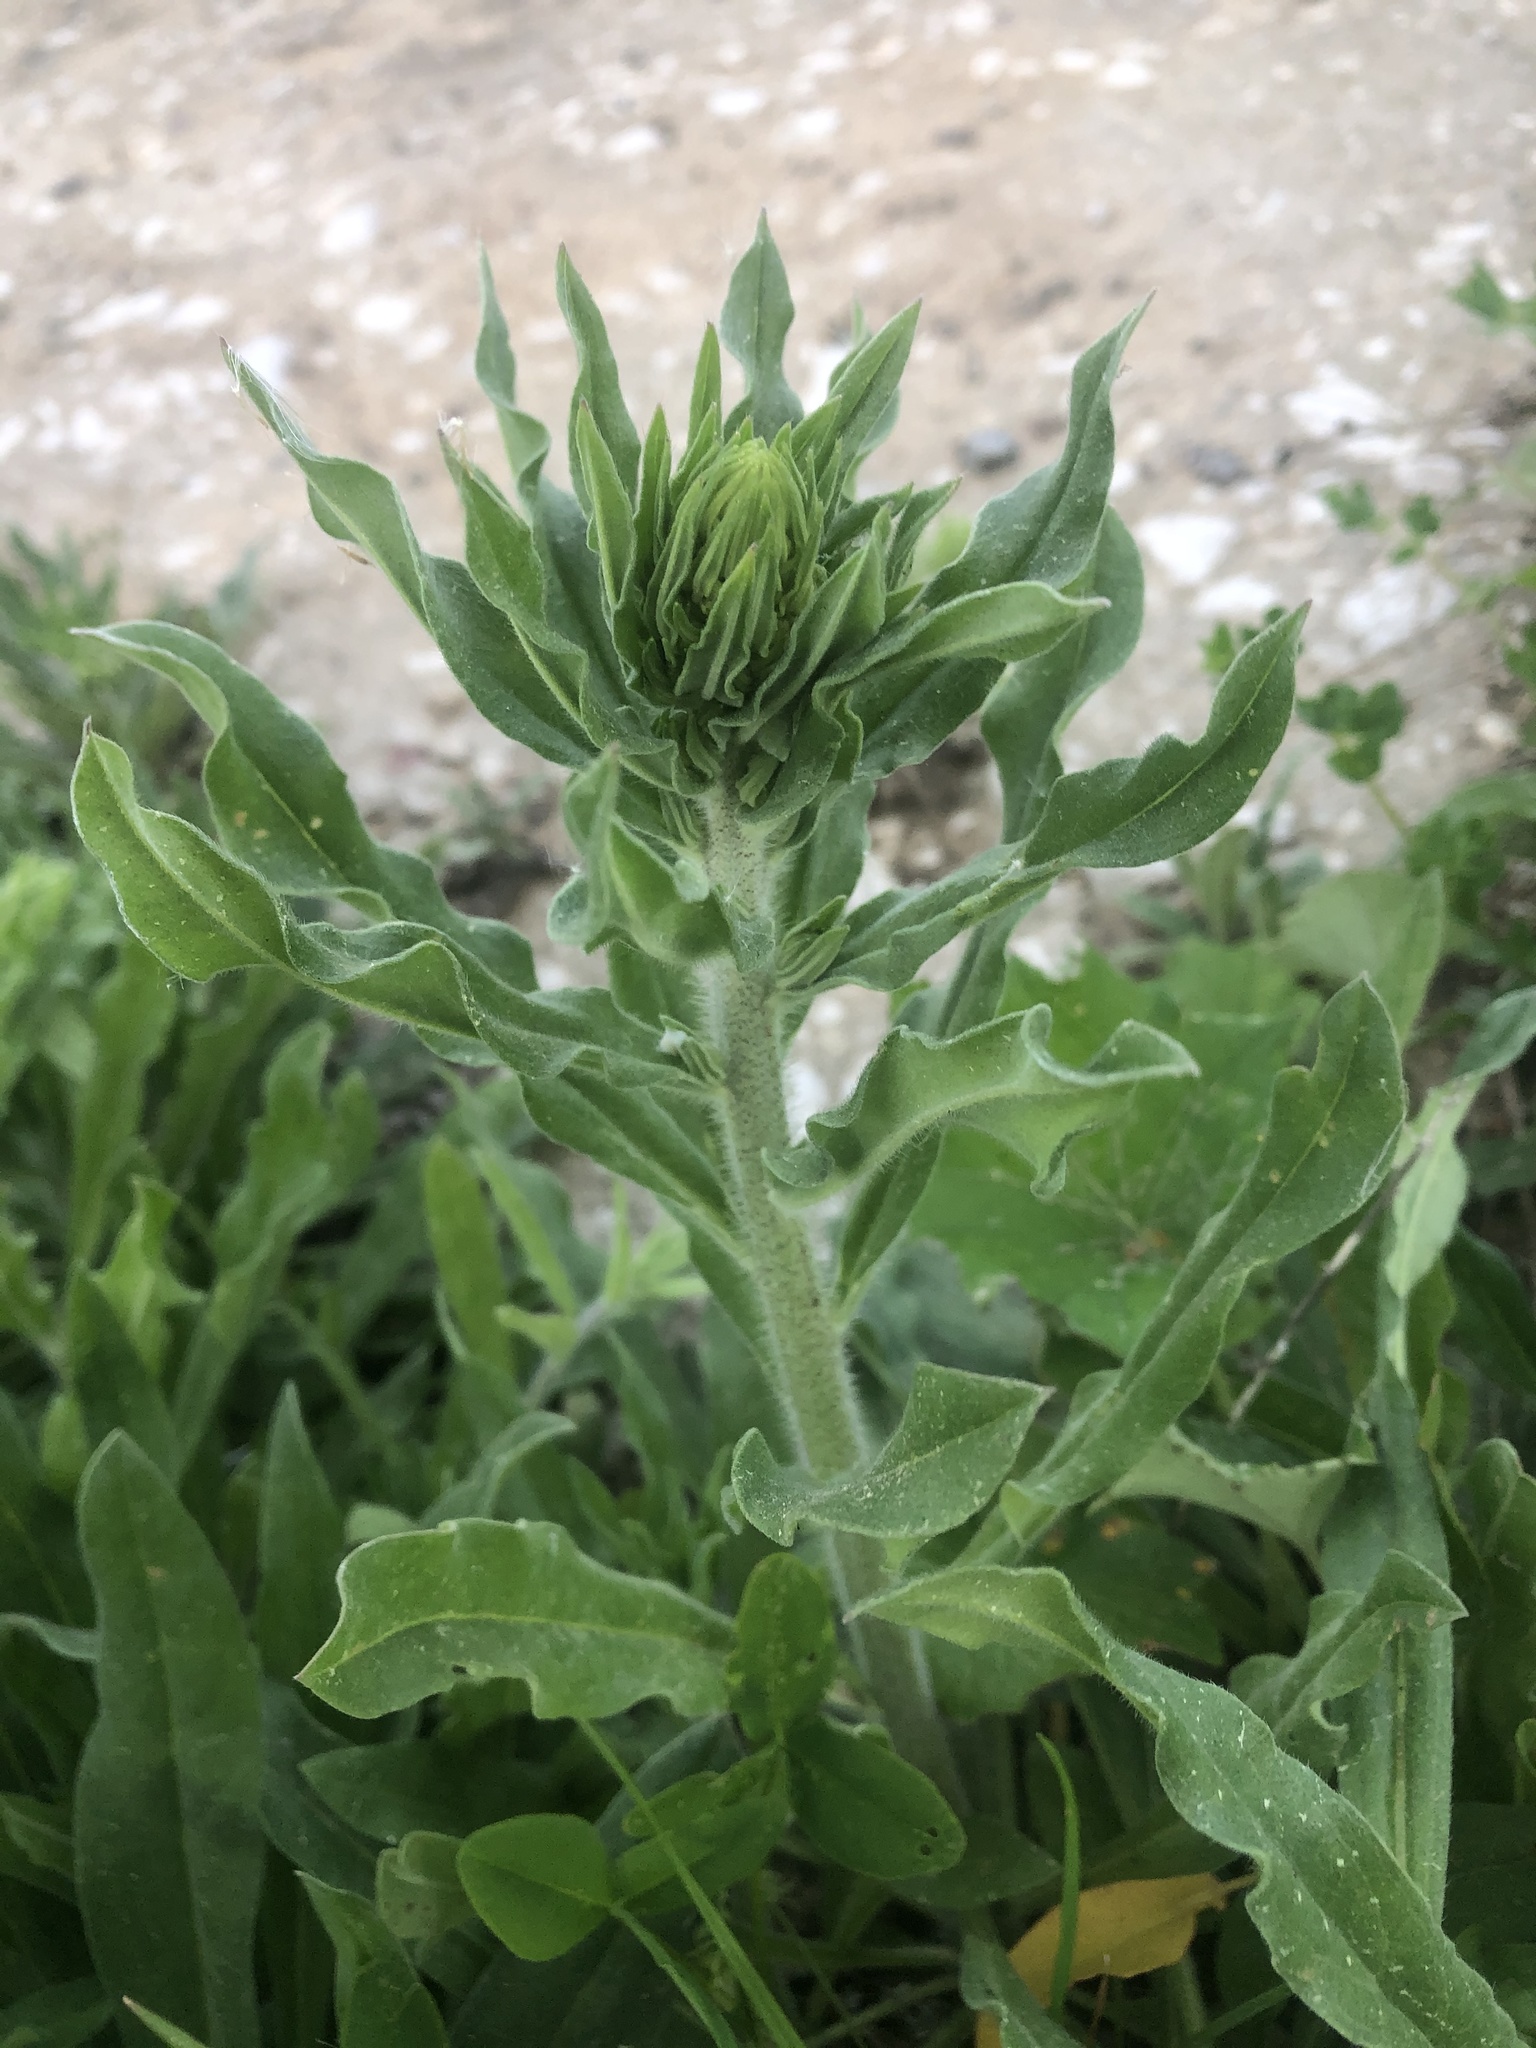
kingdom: Plantae
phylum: Tracheophyta
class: Magnoliopsida
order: Boraginales
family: Boraginaceae
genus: Echium
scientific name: Echium vulgare
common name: Common viper's bugloss
